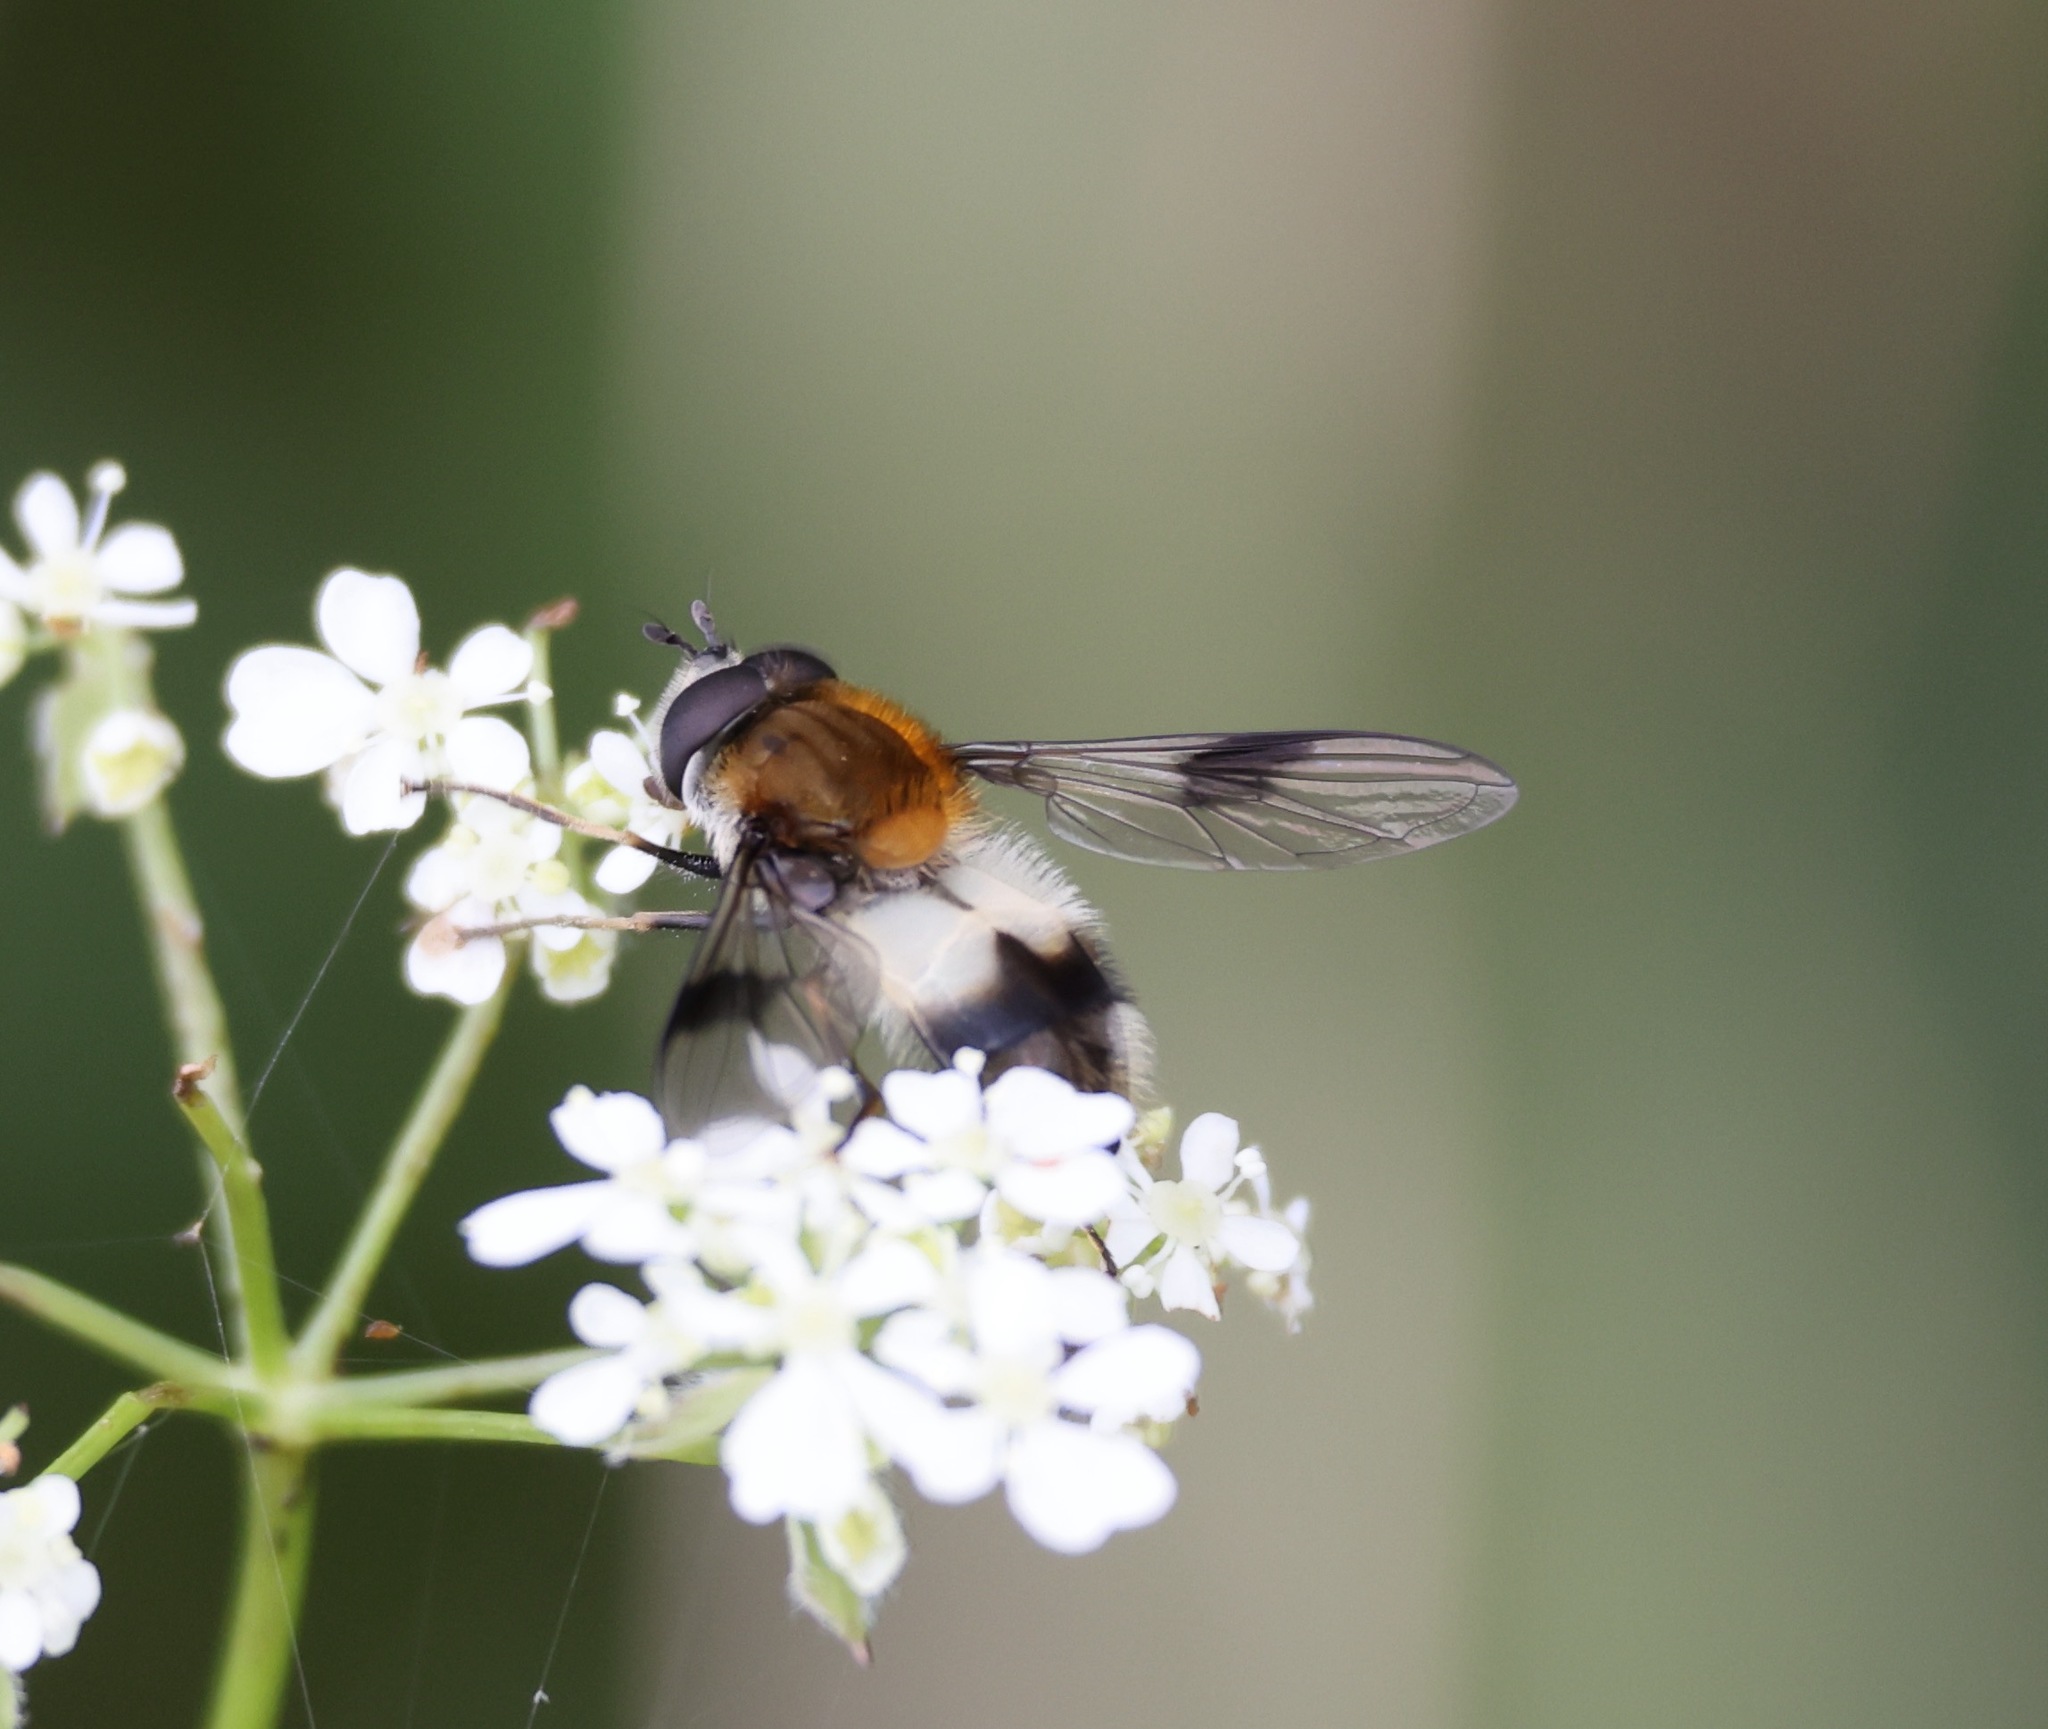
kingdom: Animalia
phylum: Arthropoda
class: Insecta
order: Diptera
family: Syrphidae
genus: Leucozona
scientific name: Leucozona lucorum
